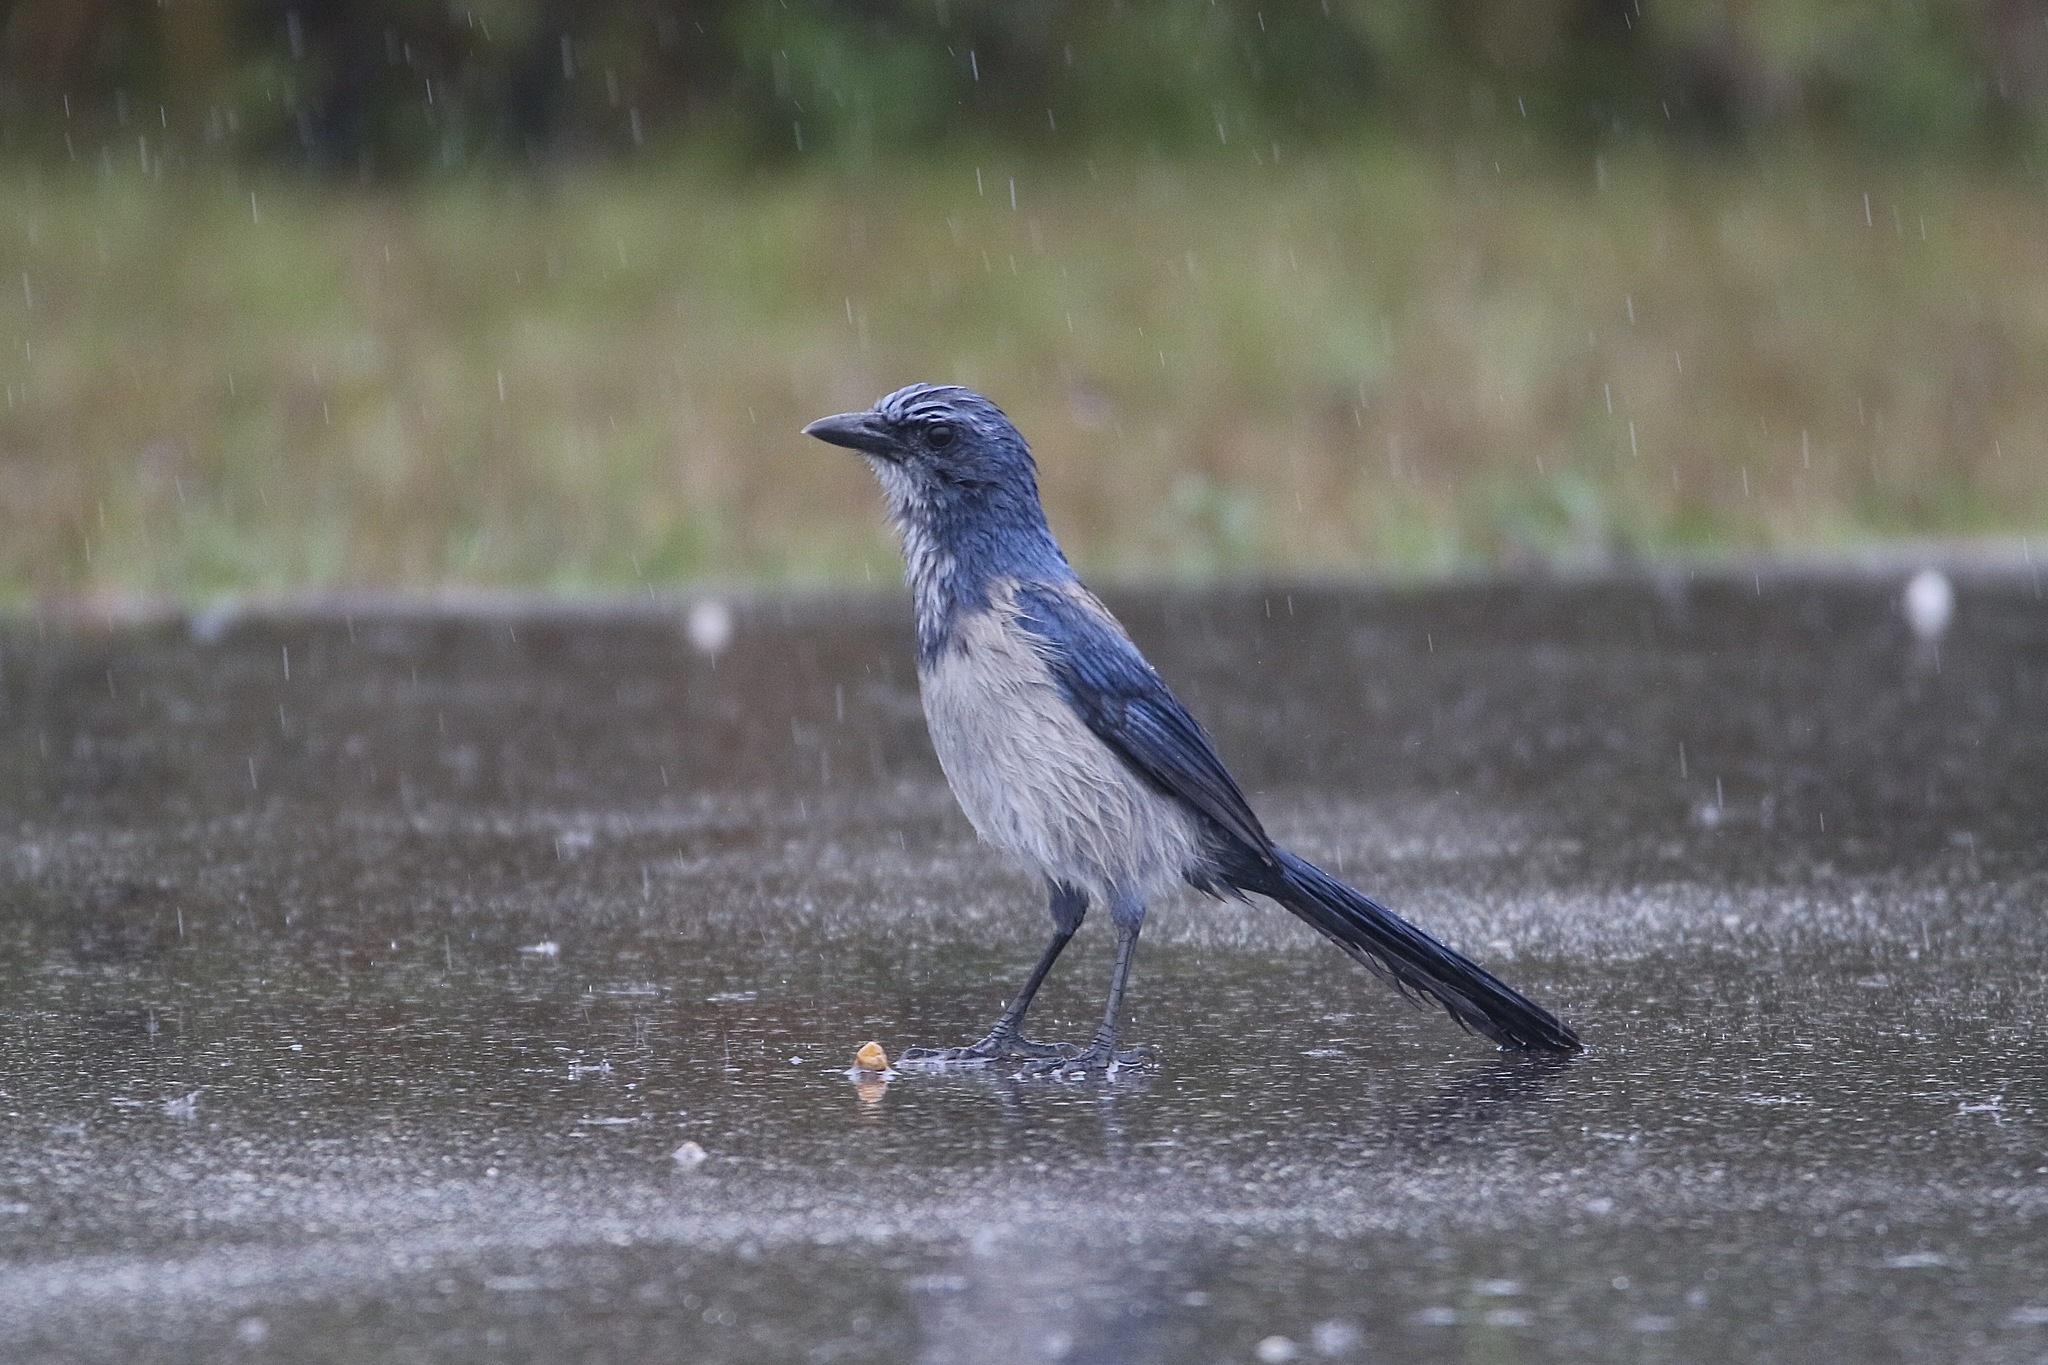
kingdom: Animalia
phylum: Chordata
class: Aves
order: Passeriformes
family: Corvidae
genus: Aphelocoma
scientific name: Aphelocoma coerulescens
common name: Florida scrub jay
